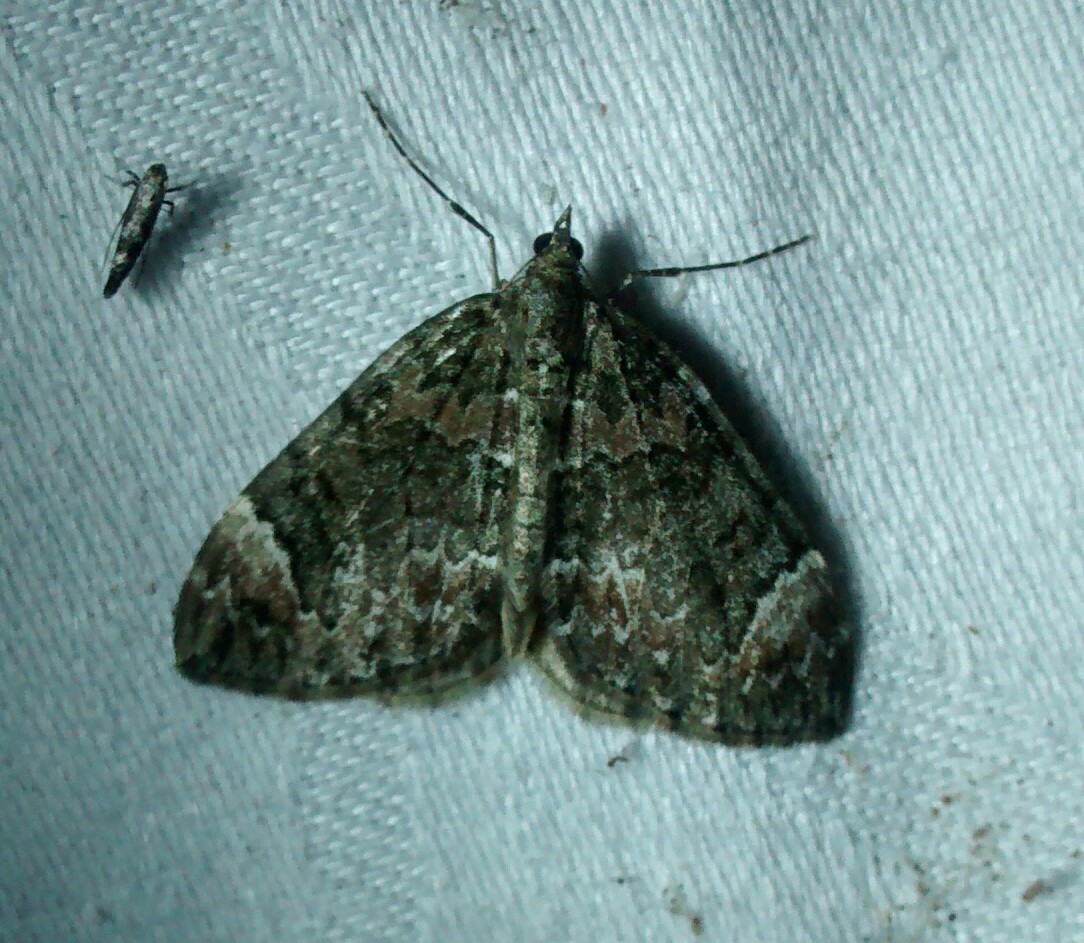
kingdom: Animalia
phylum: Arthropoda
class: Insecta
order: Lepidoptera
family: Geometridae
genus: Dysstroma
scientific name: Dysstroma citrata
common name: Dark marbled carpet
